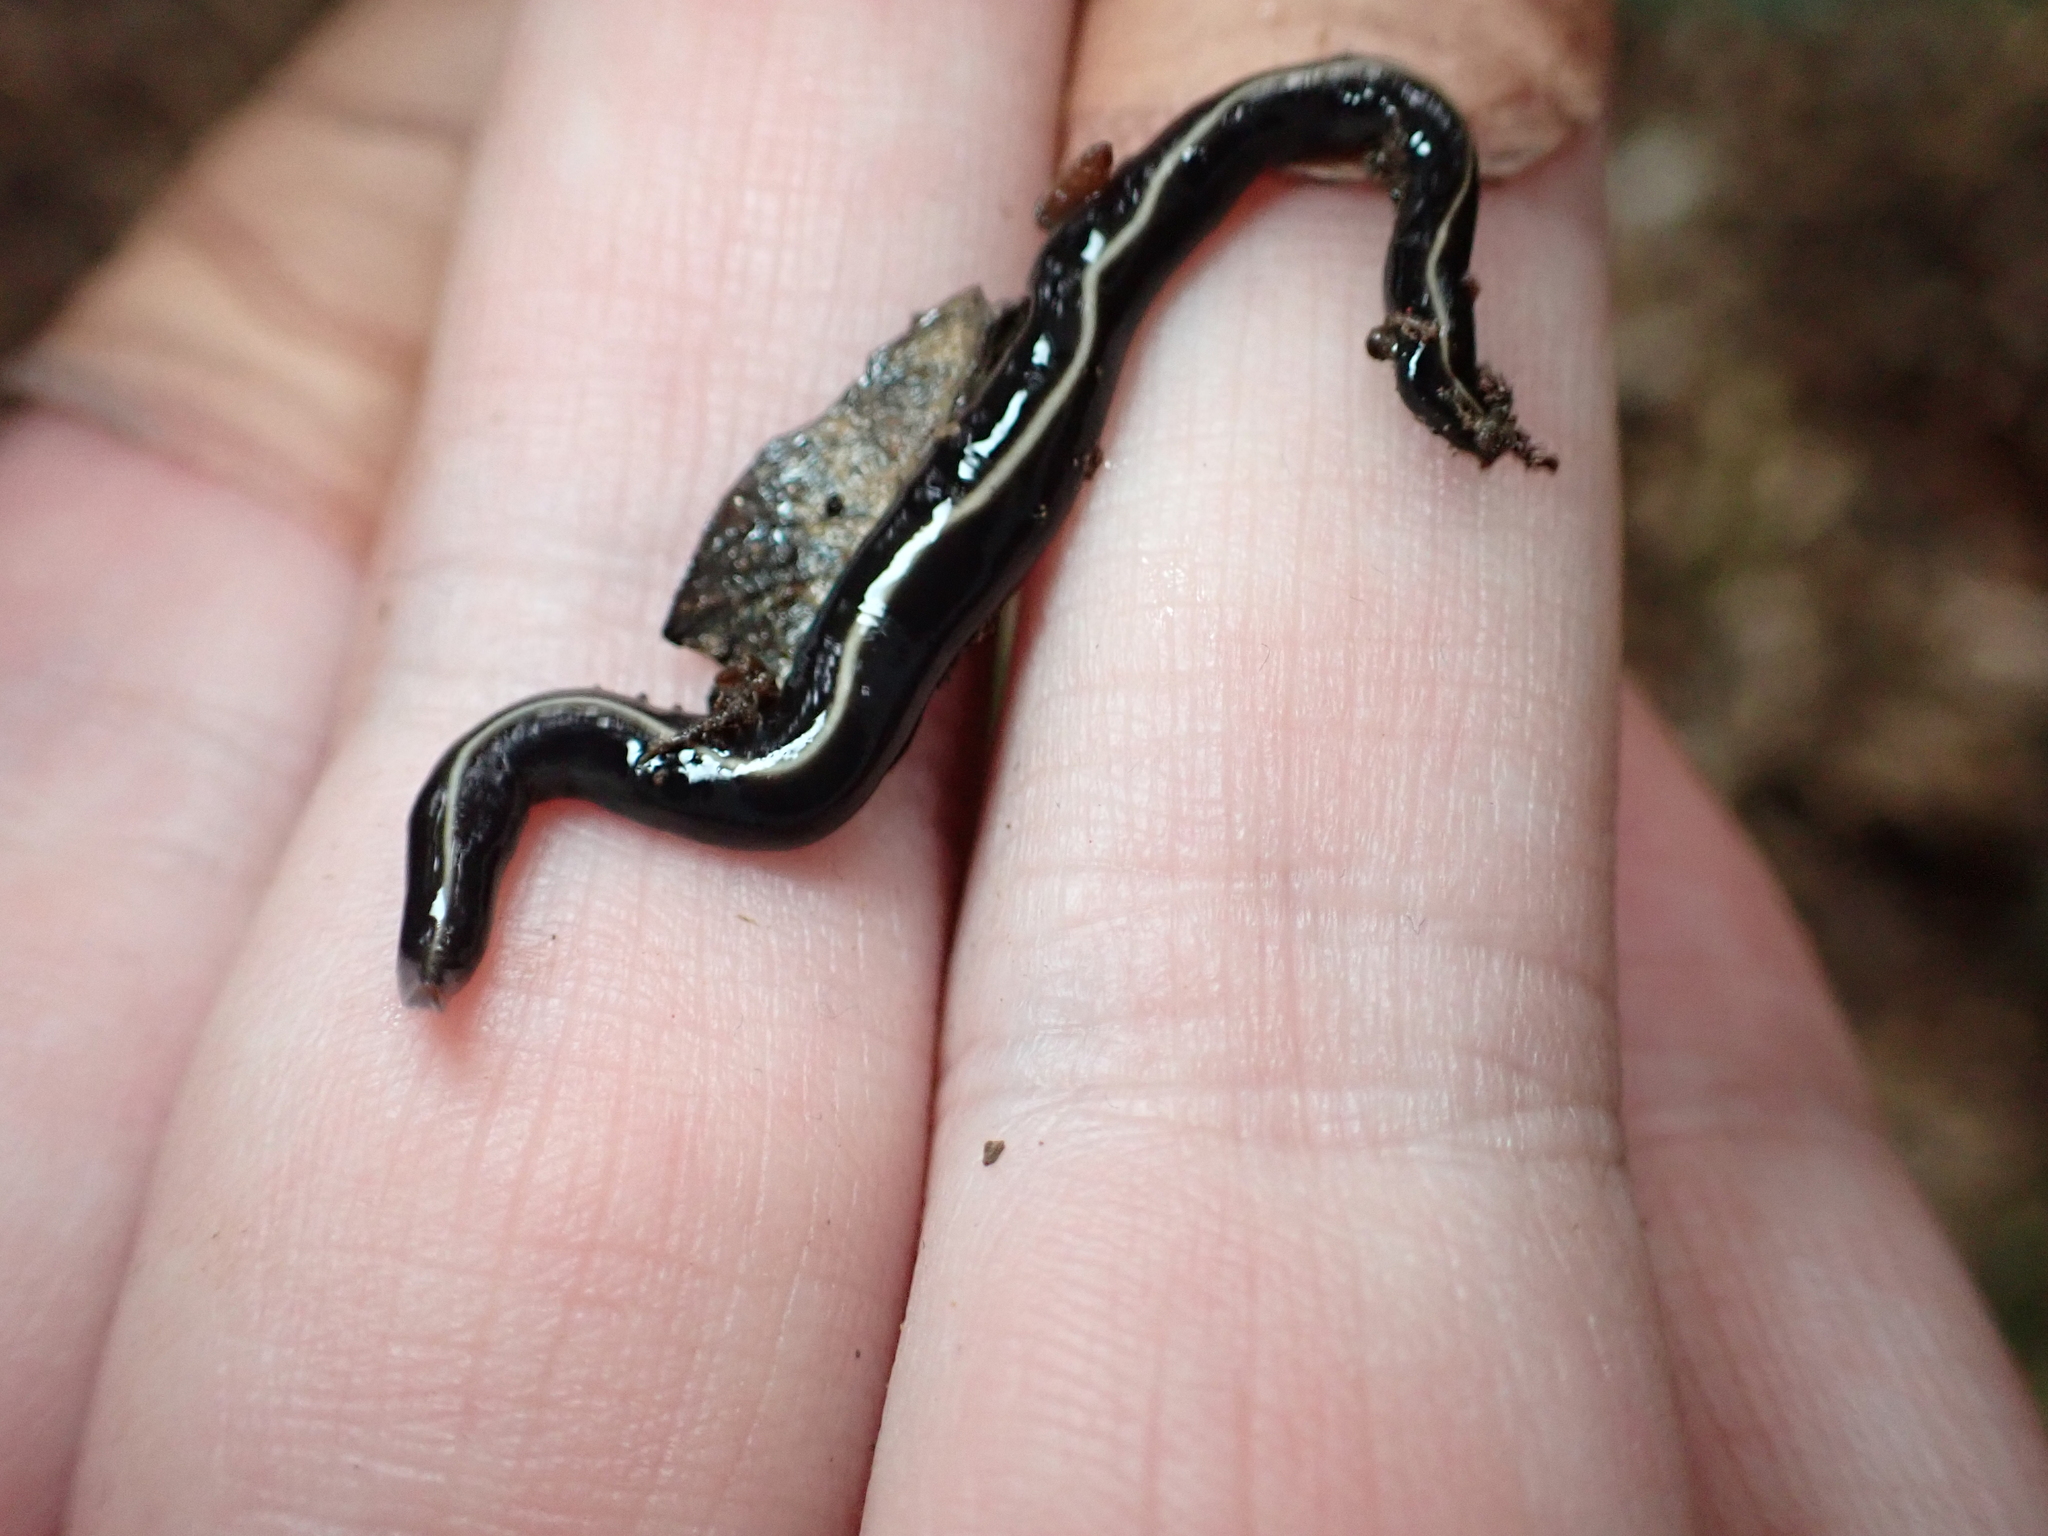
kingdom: Animalia
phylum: Platyhelminthes
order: Tricladida
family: Geoplanidae
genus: Caenoplana
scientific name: Caenoplana coerulea
